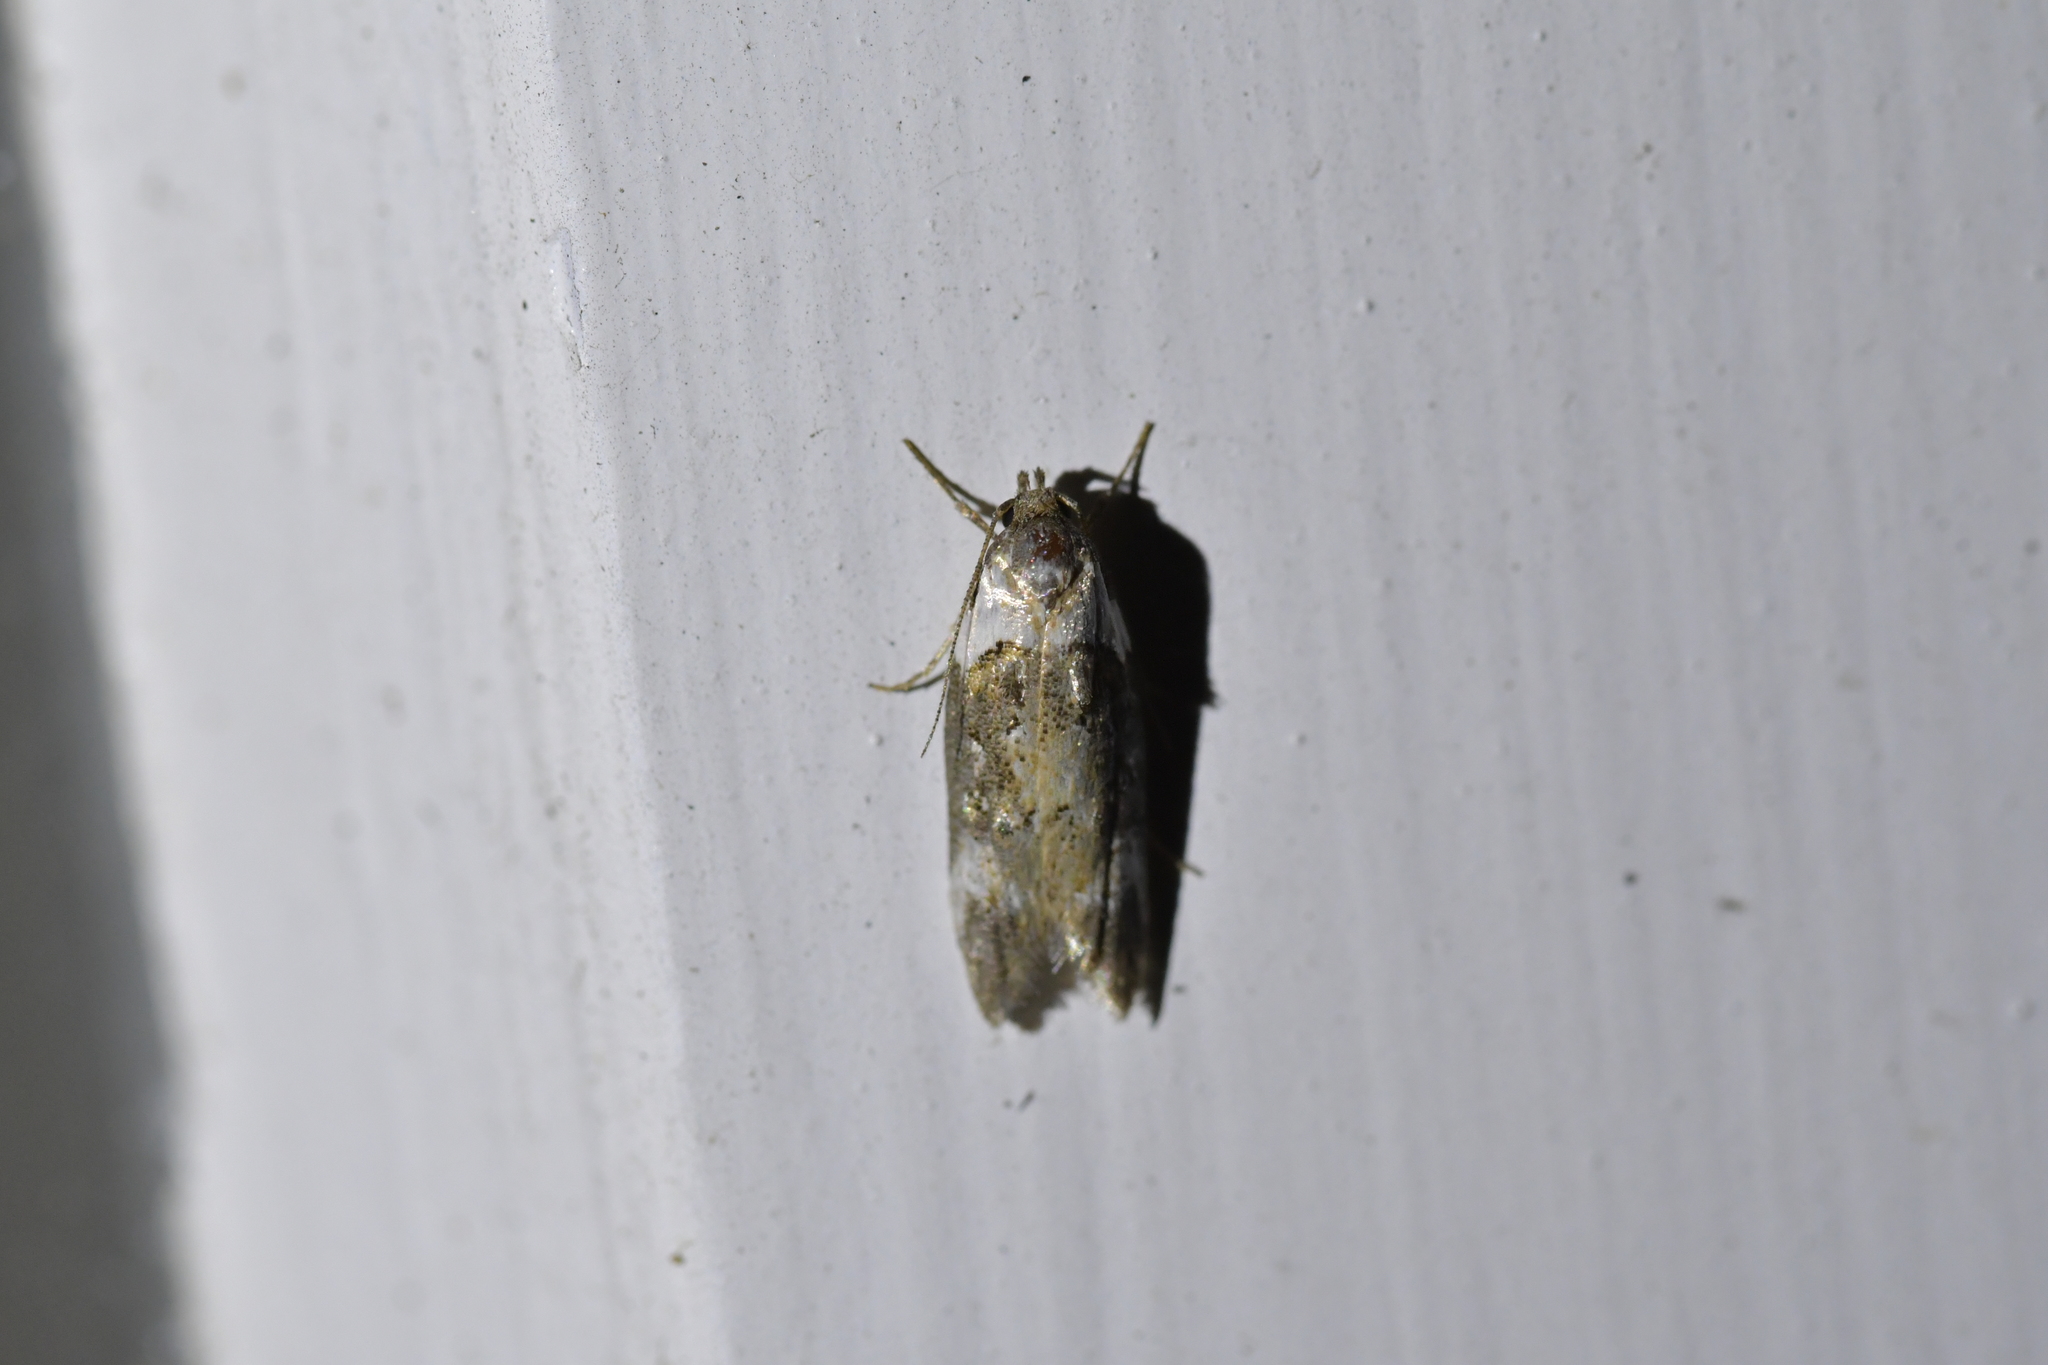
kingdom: Animalia
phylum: Arthropoda
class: Insecta
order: Lepidoptera
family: Oecophoridae
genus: Trachypepla
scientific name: Trachypepla conspicuella
